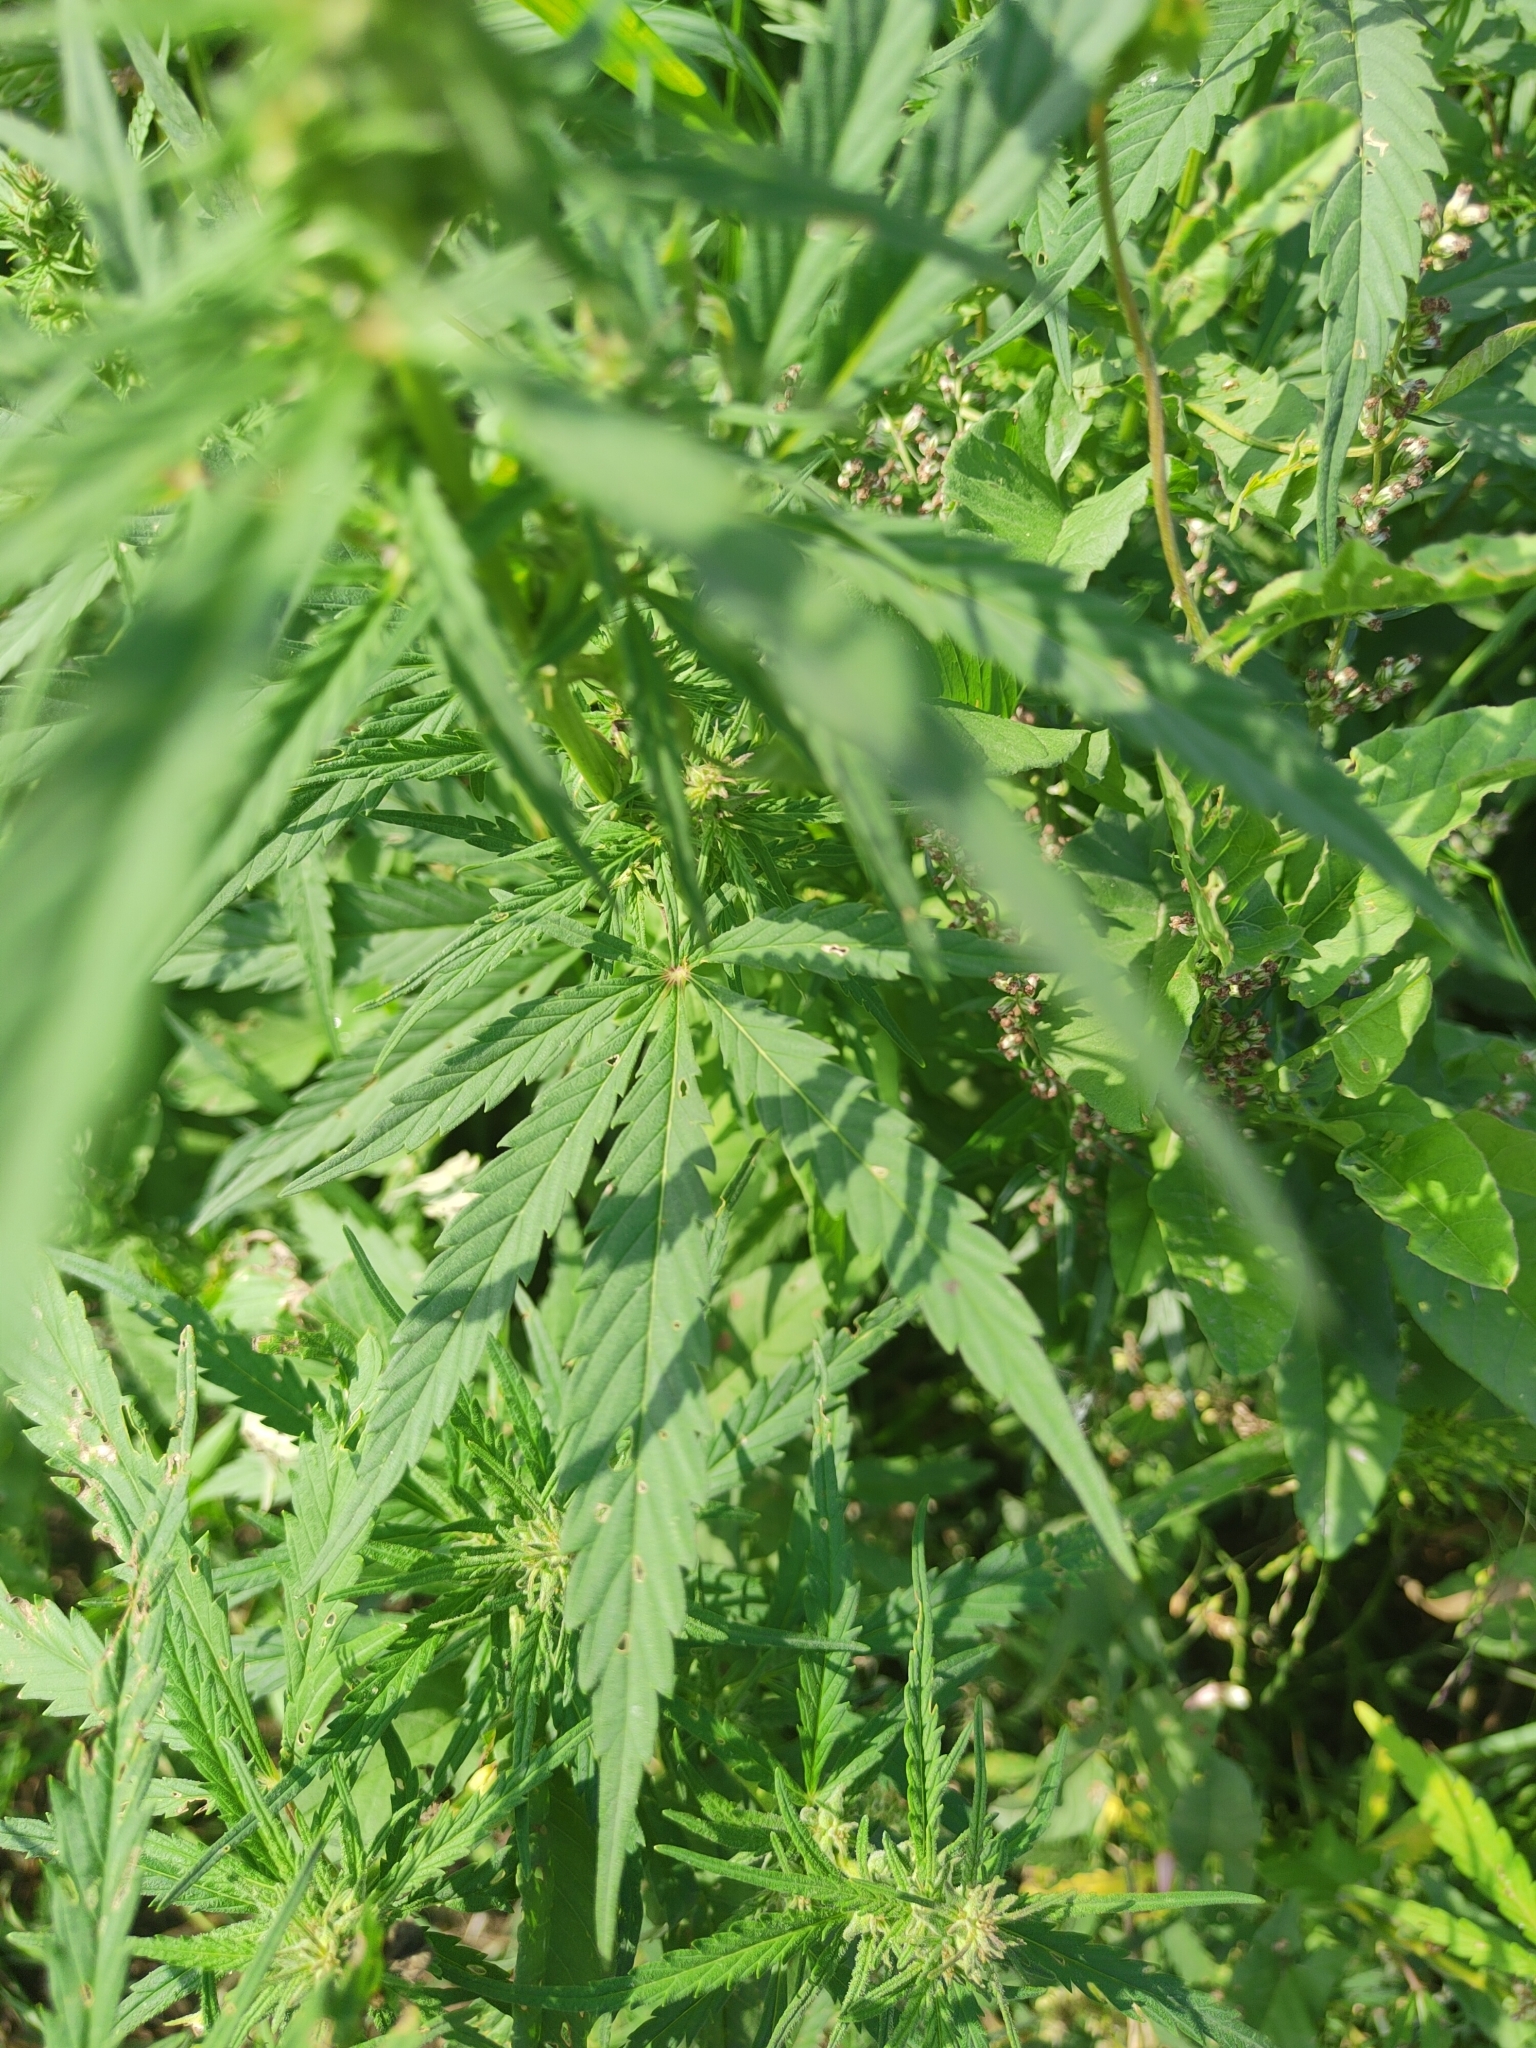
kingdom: Plantae
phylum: Tracheophyta
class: Magnoliopsida
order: Rosales
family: Cannabaceae
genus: Cannabis
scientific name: Cannabis sativa
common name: Hemp
